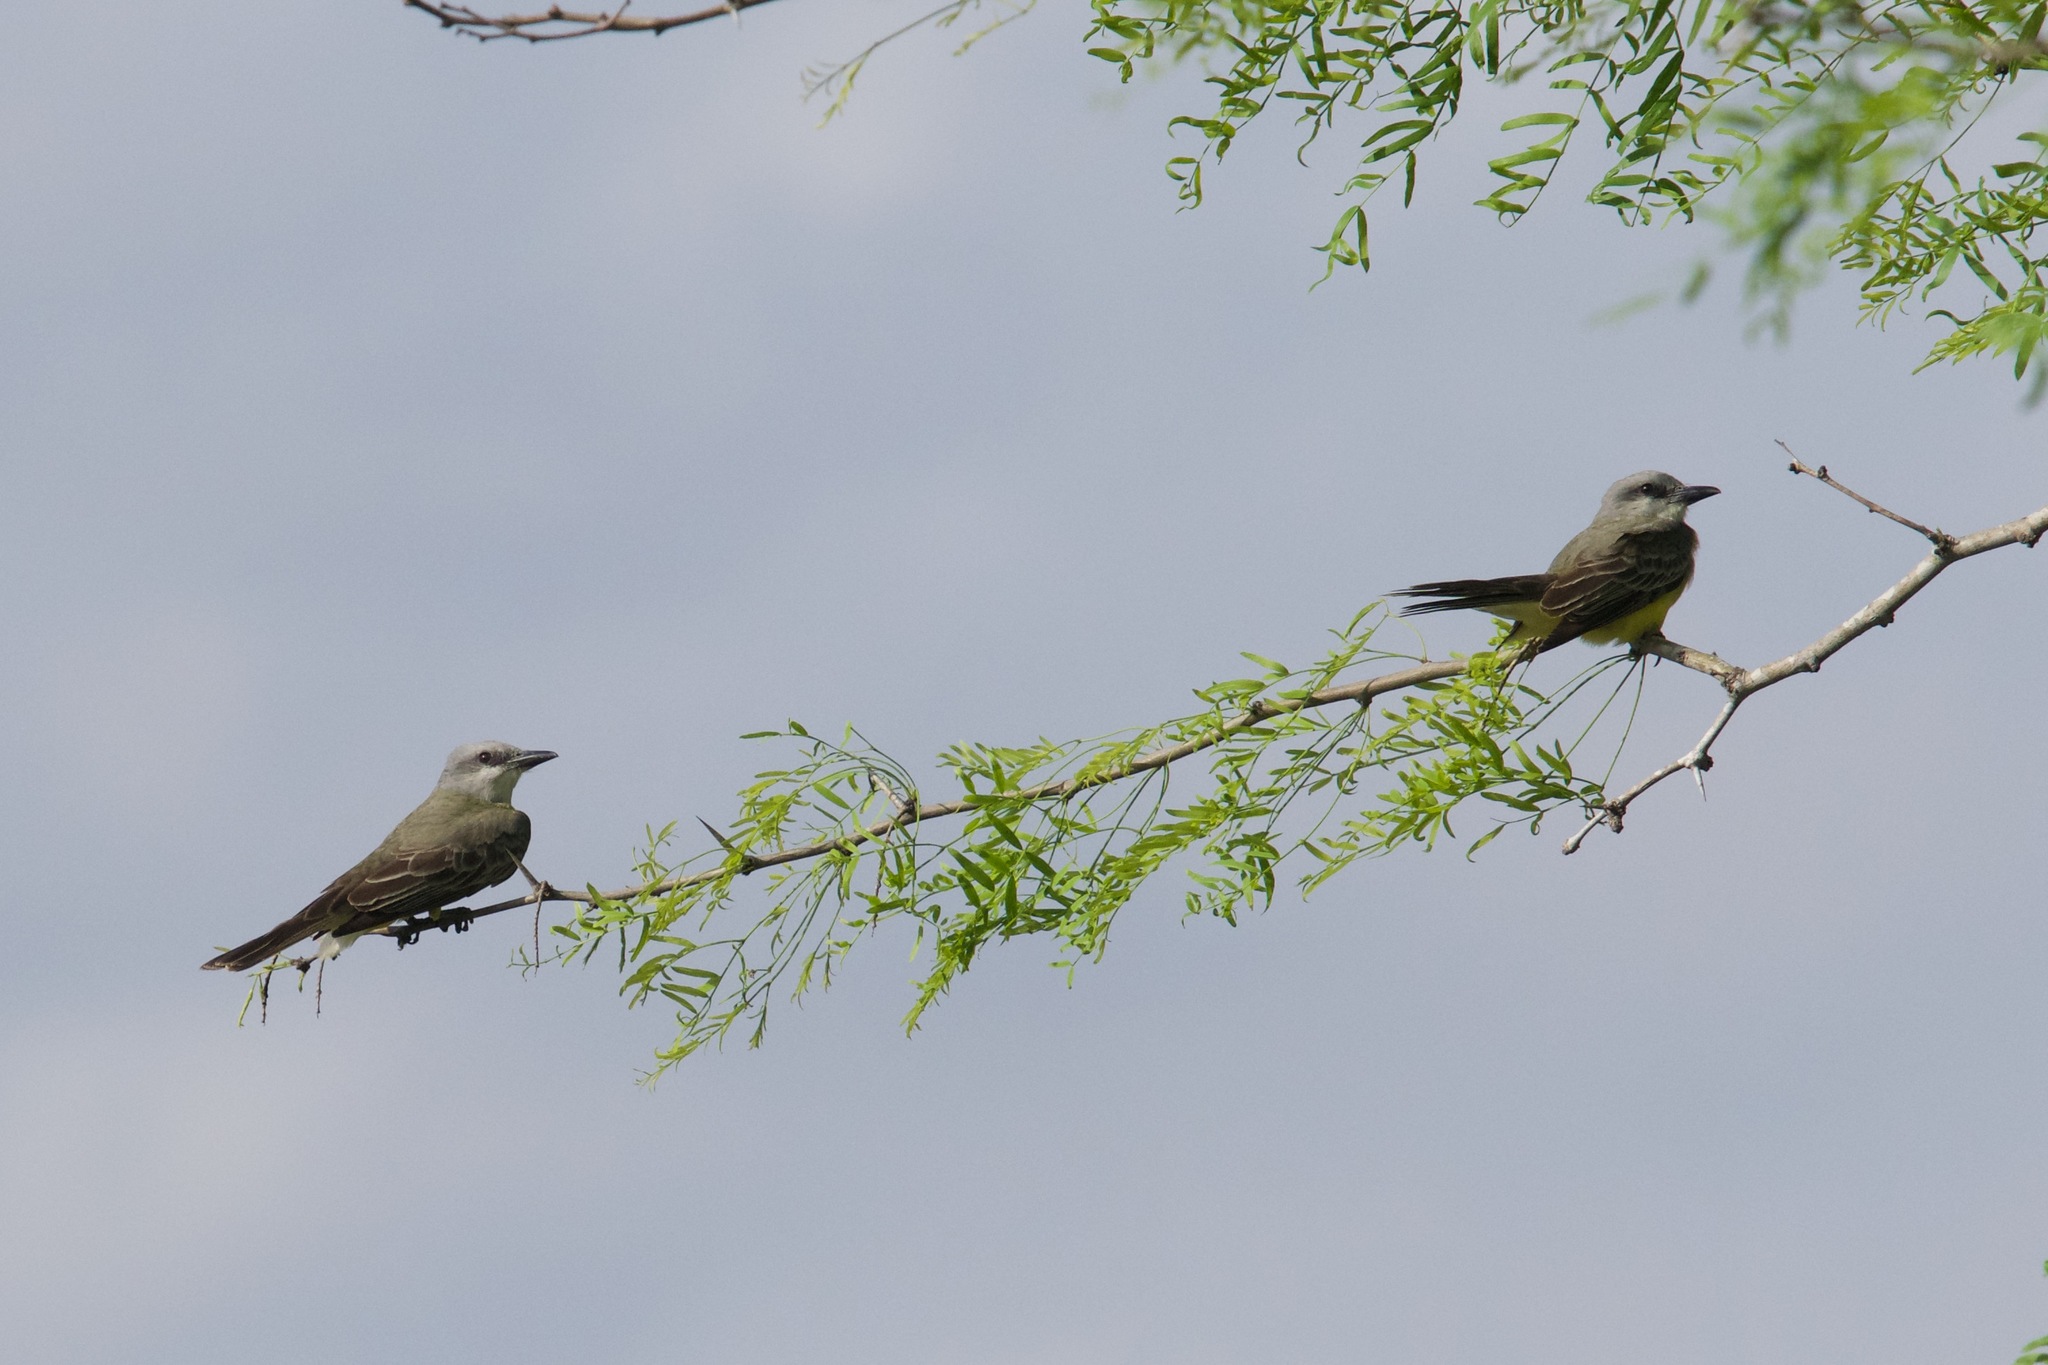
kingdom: Animalia
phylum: Chordata
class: Aves
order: Passeriformes
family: Tyrannidae
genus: Tyrannus
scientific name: Tyrannus melancholicus
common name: Tropical kingbird
